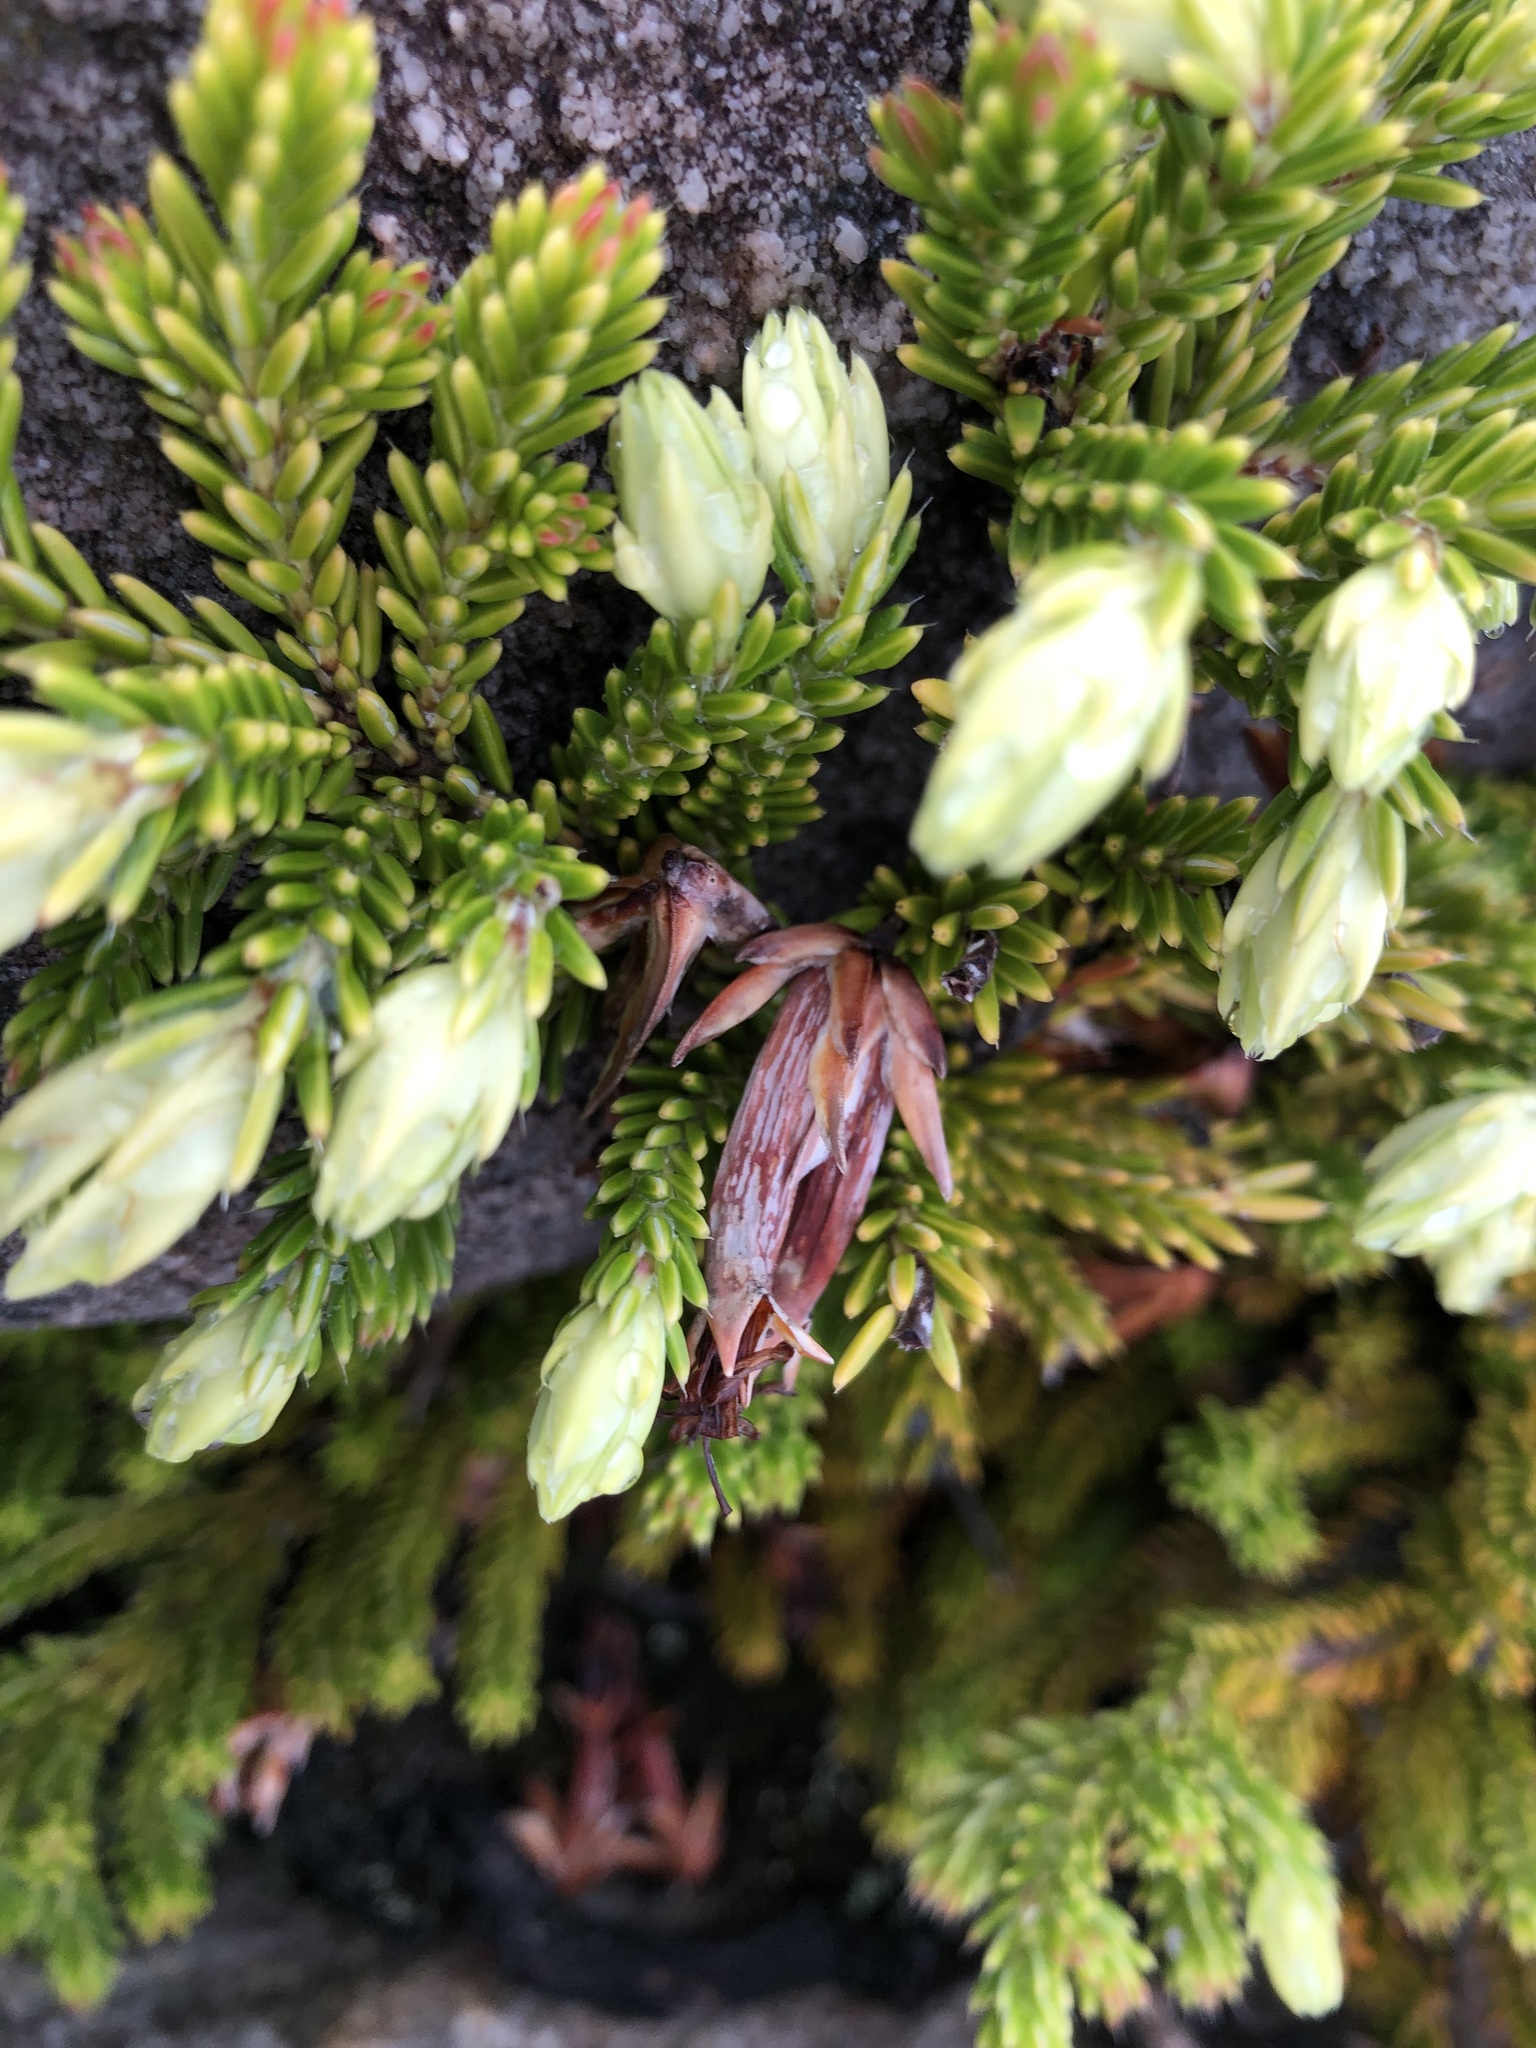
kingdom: Plantae
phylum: Tracheophyta
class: Magnoliopsida
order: Ericales
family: Ericaceae
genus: Erica
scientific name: Erica banksia
